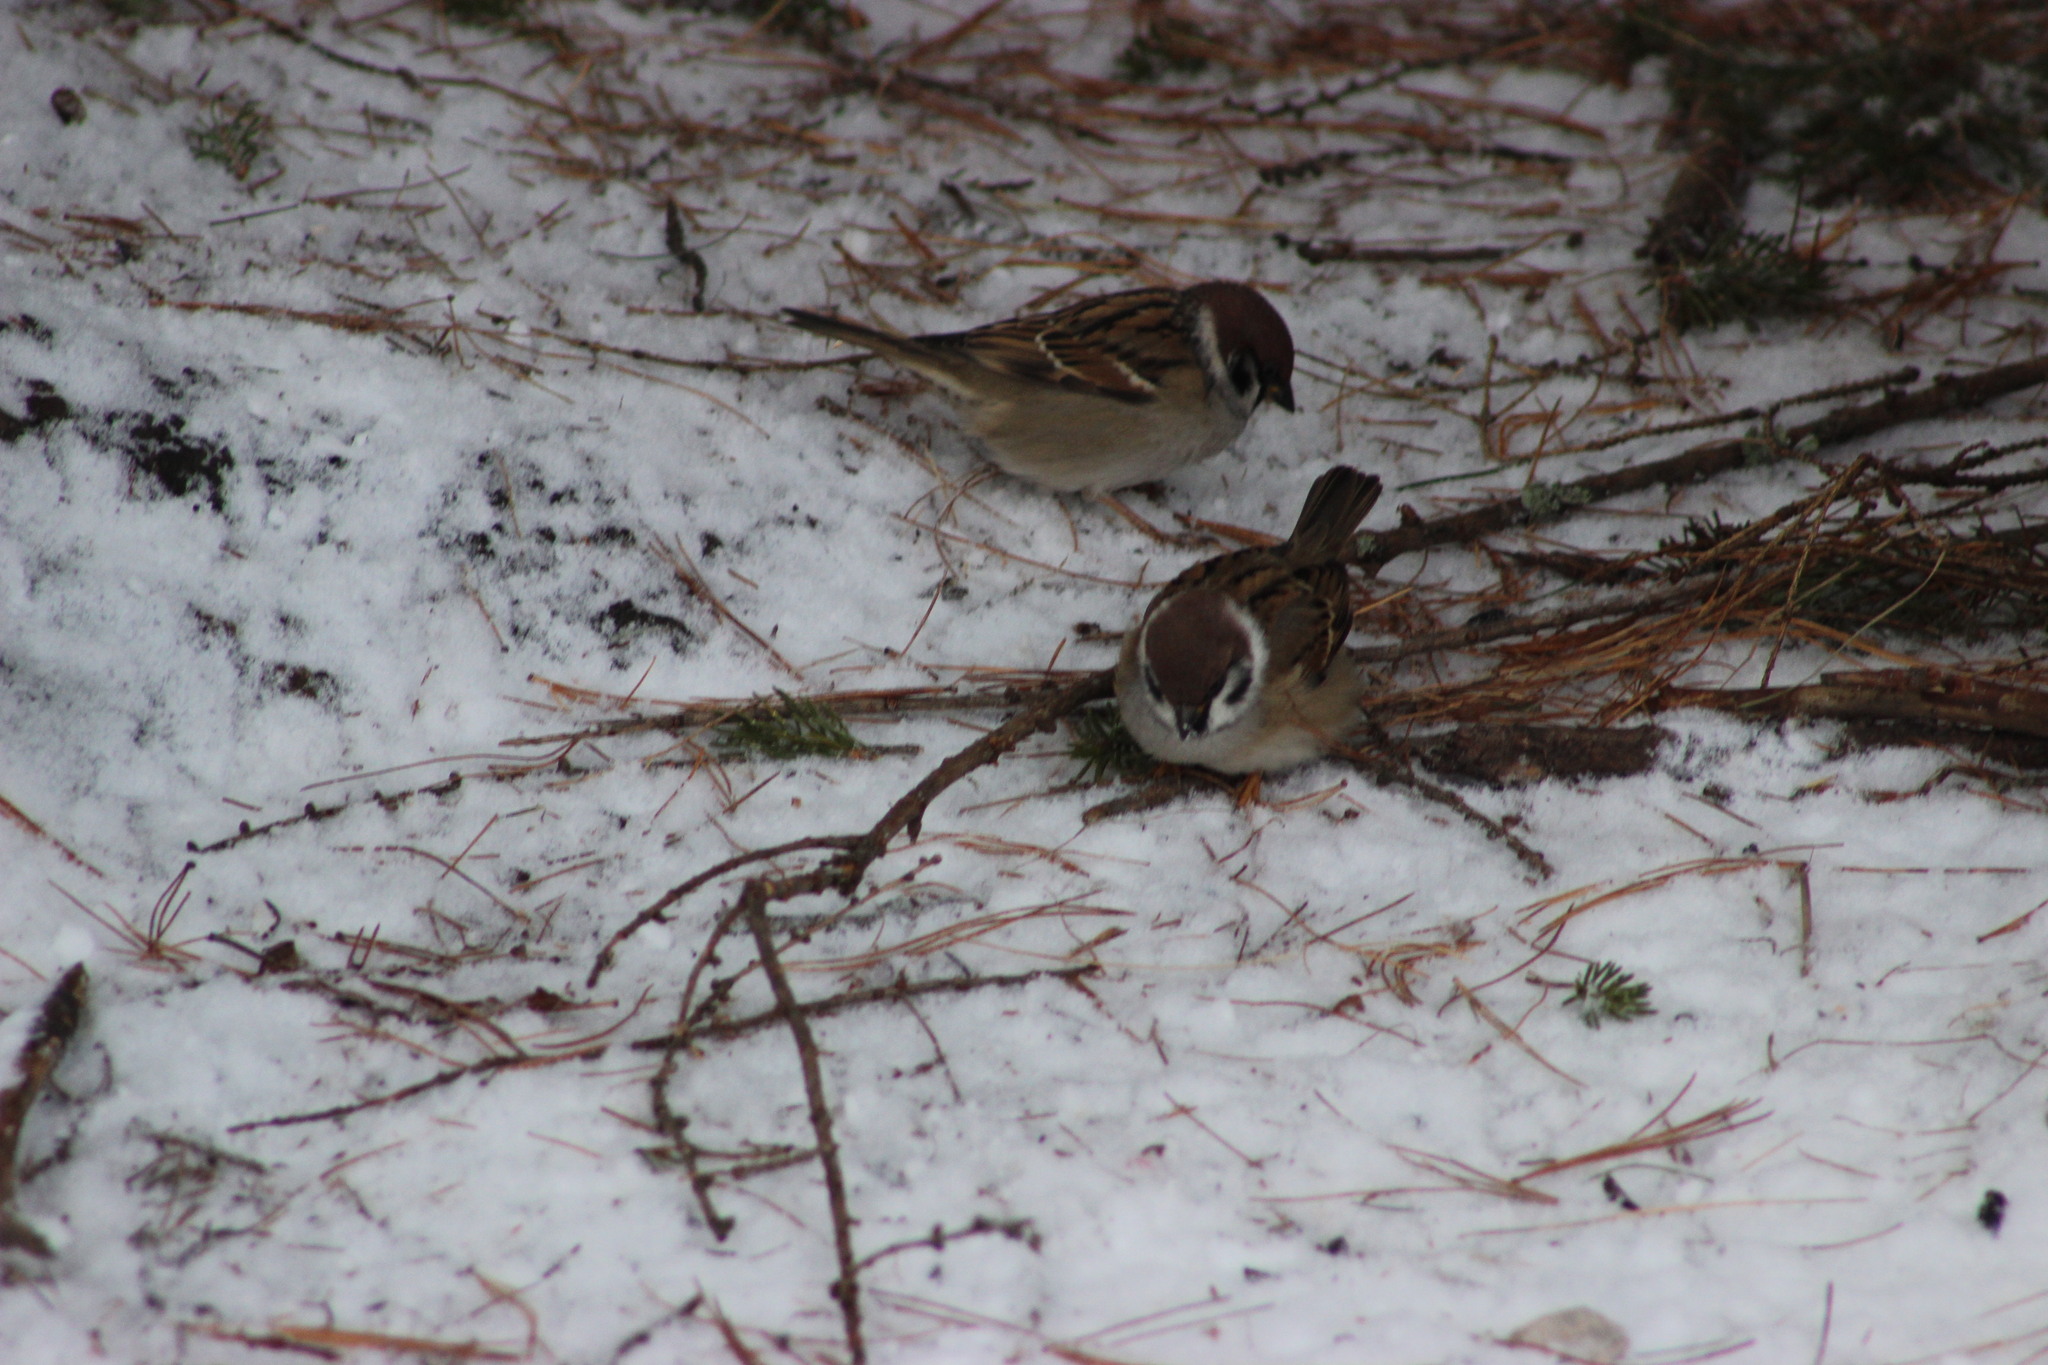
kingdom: Animalia
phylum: Chordata
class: Aves
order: Passeriformes
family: Passeridae
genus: Passer
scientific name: Passer montanus
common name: Eurasian tree sparrow
